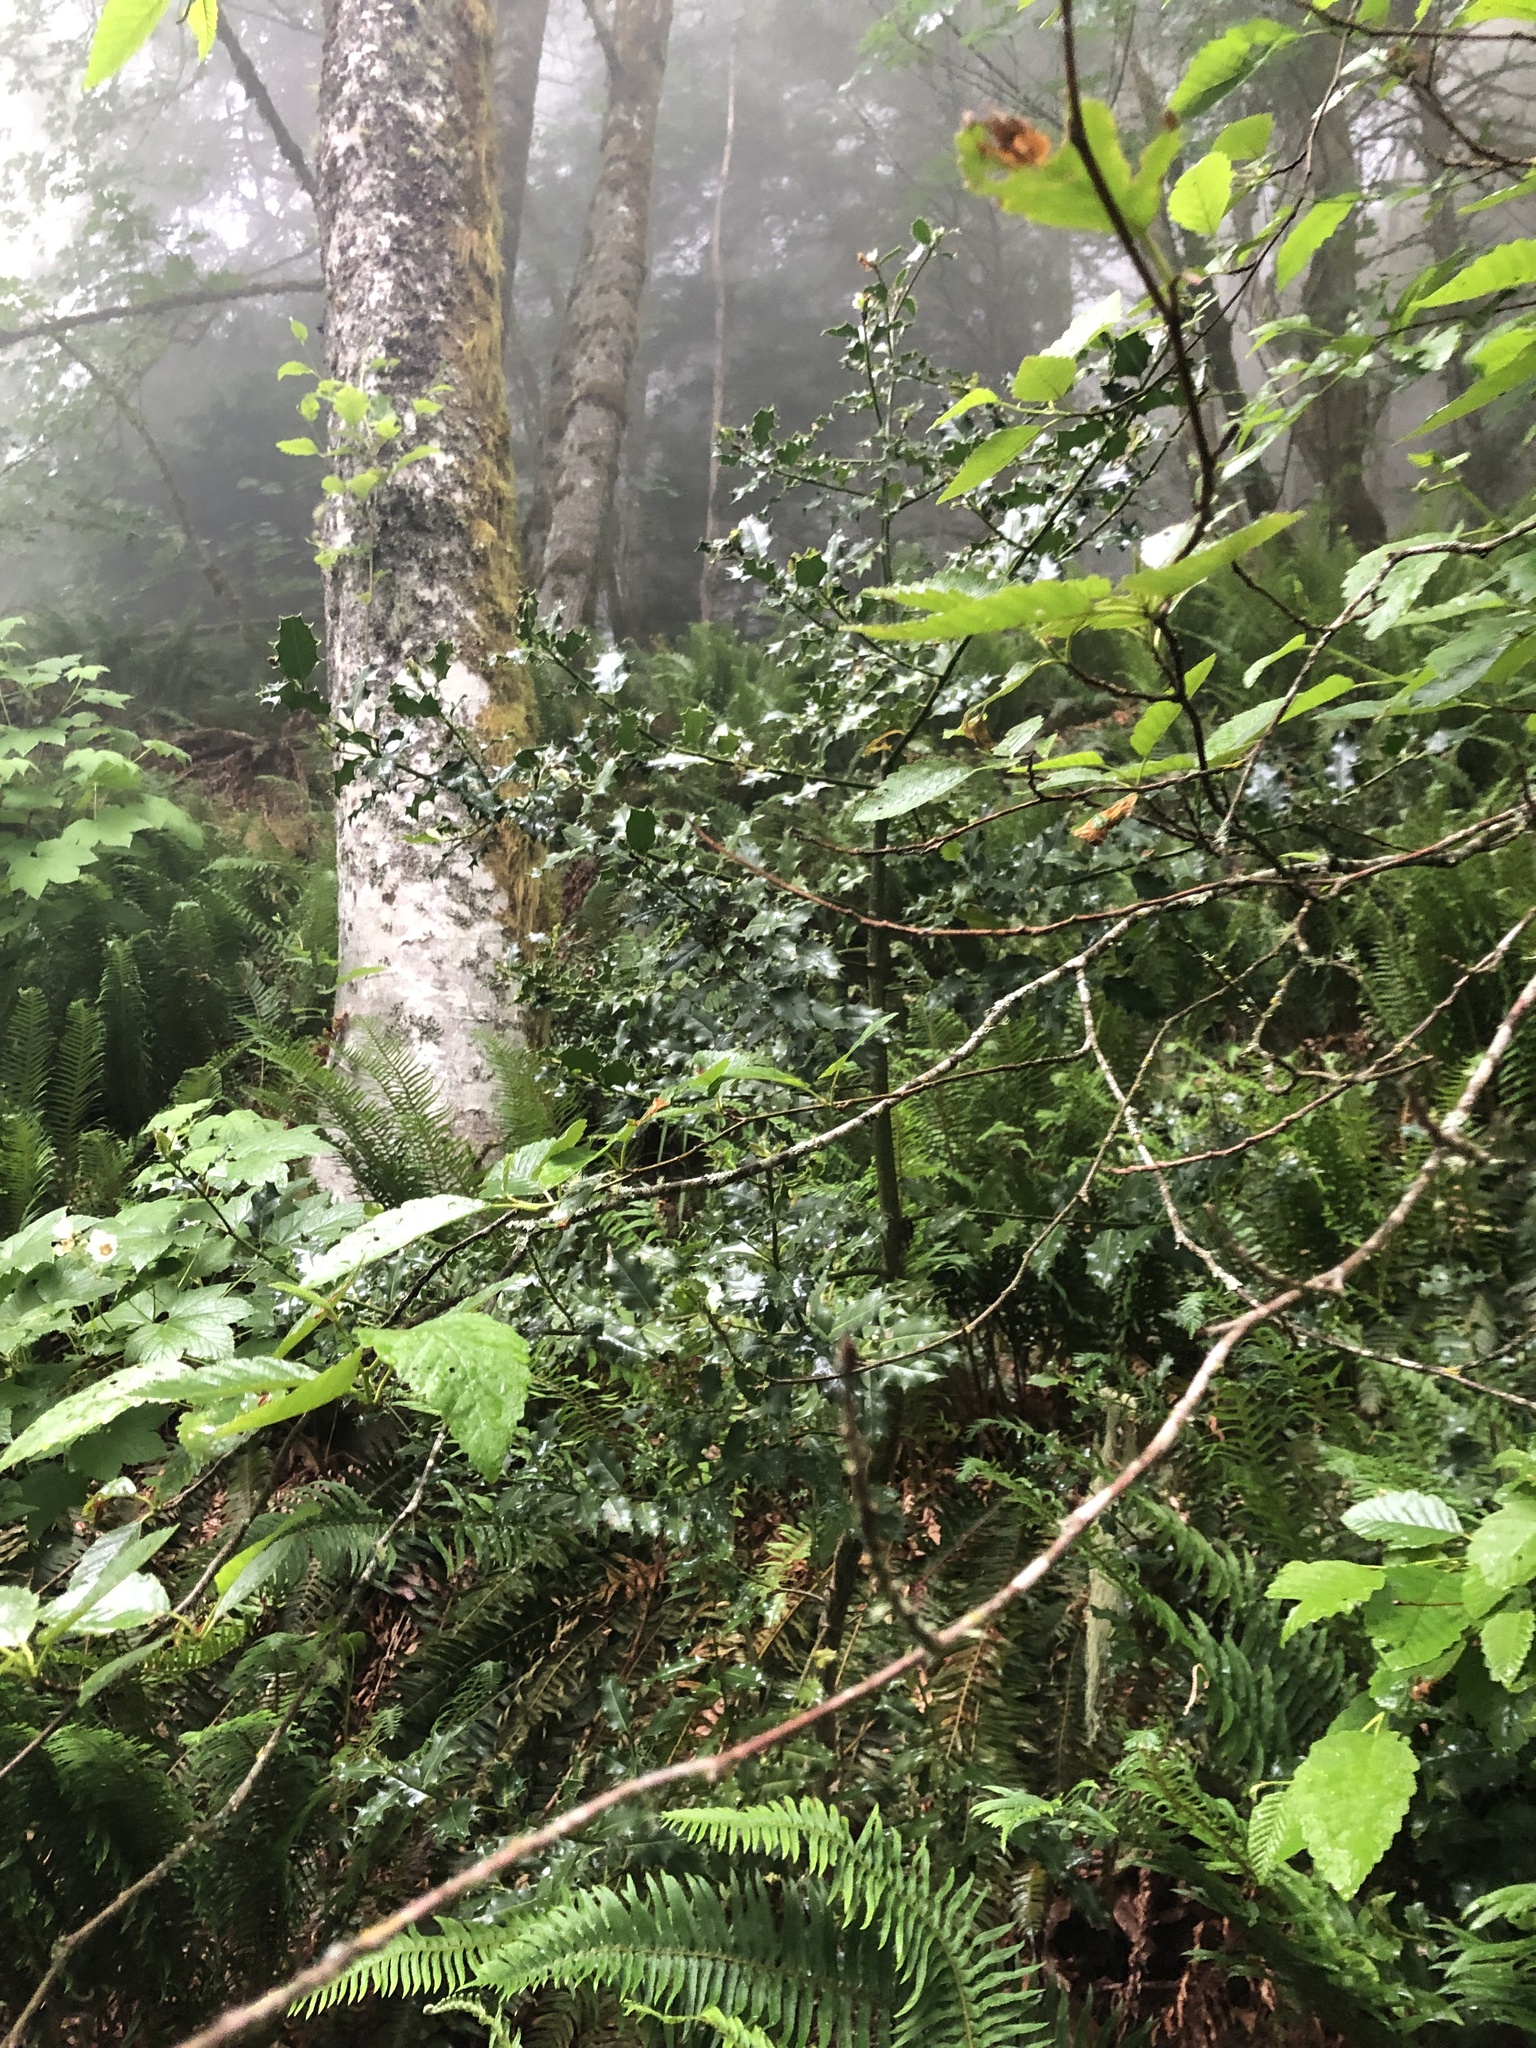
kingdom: Plantae
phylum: Tracheophyta
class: Magnoliopsida
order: Aquifoliales
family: Aquifoliaceae
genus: Ilex
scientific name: Ilex aquifolium
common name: English holly
